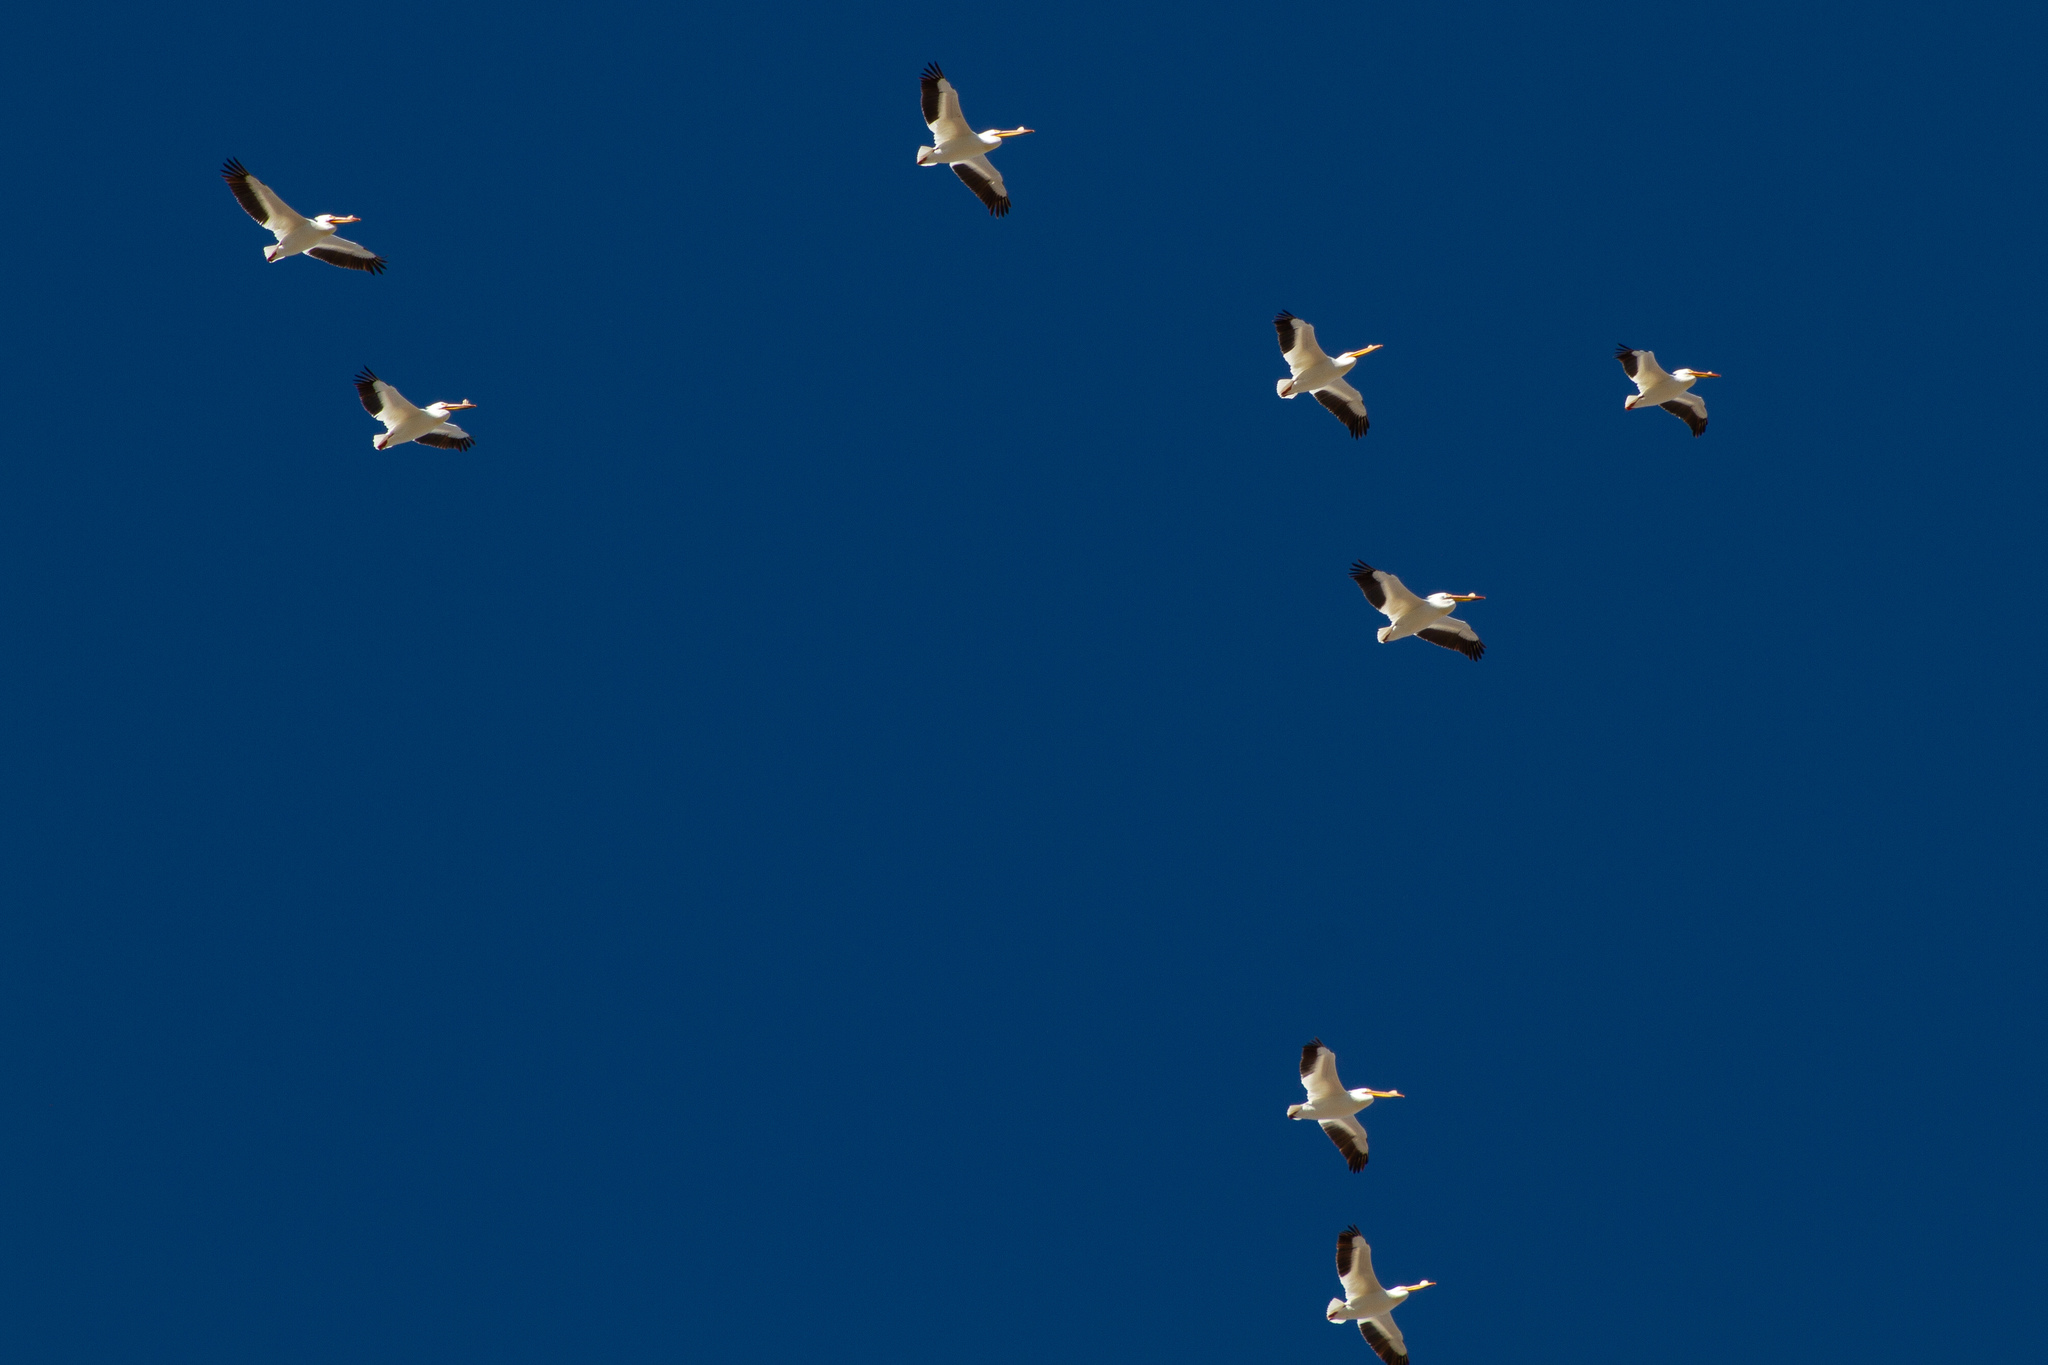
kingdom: Animalia
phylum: Chordata
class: Aves
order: Pelecaniformes
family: Pelecanidae
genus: Pelecanus
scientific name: Pelecanus erythrorhynchos
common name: American white pelican
